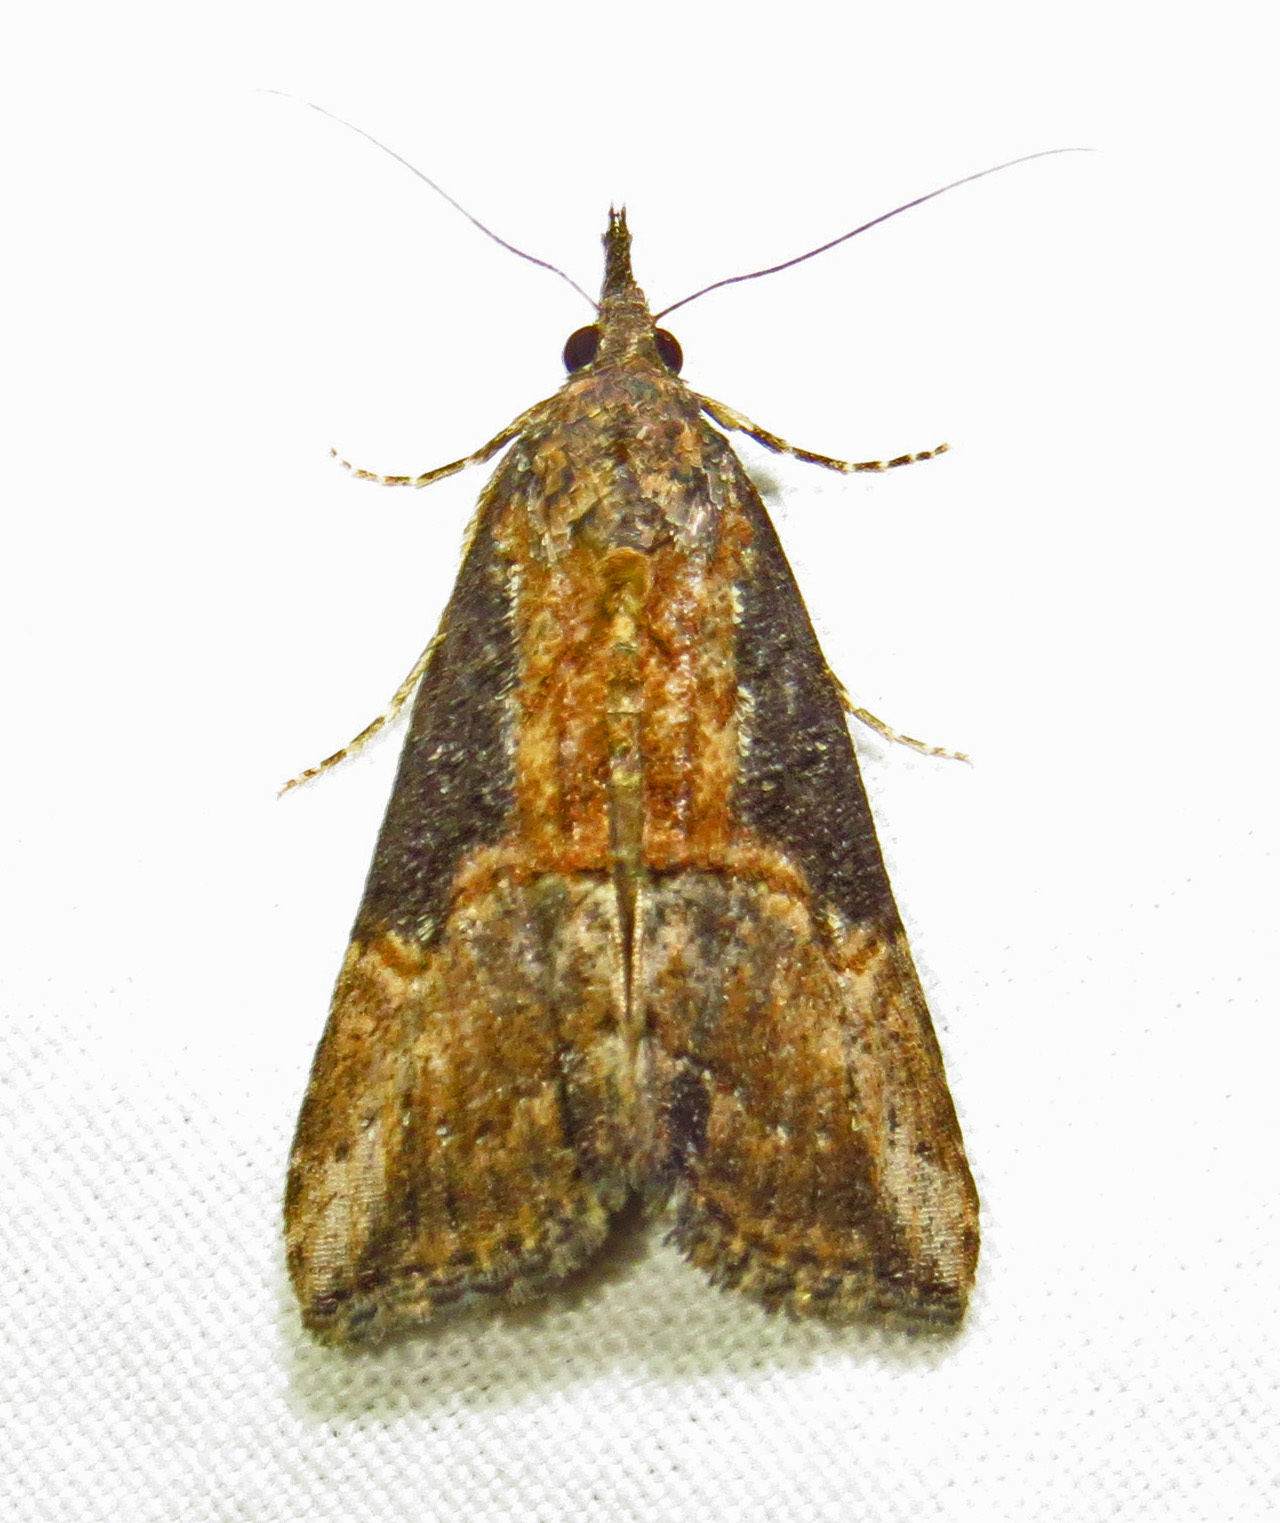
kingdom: Animalia
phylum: Arthropoda
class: Insecta
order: Lepidoptera
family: Erebidae
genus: Hypena
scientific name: Hypena scabra
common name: Green cloverworm
